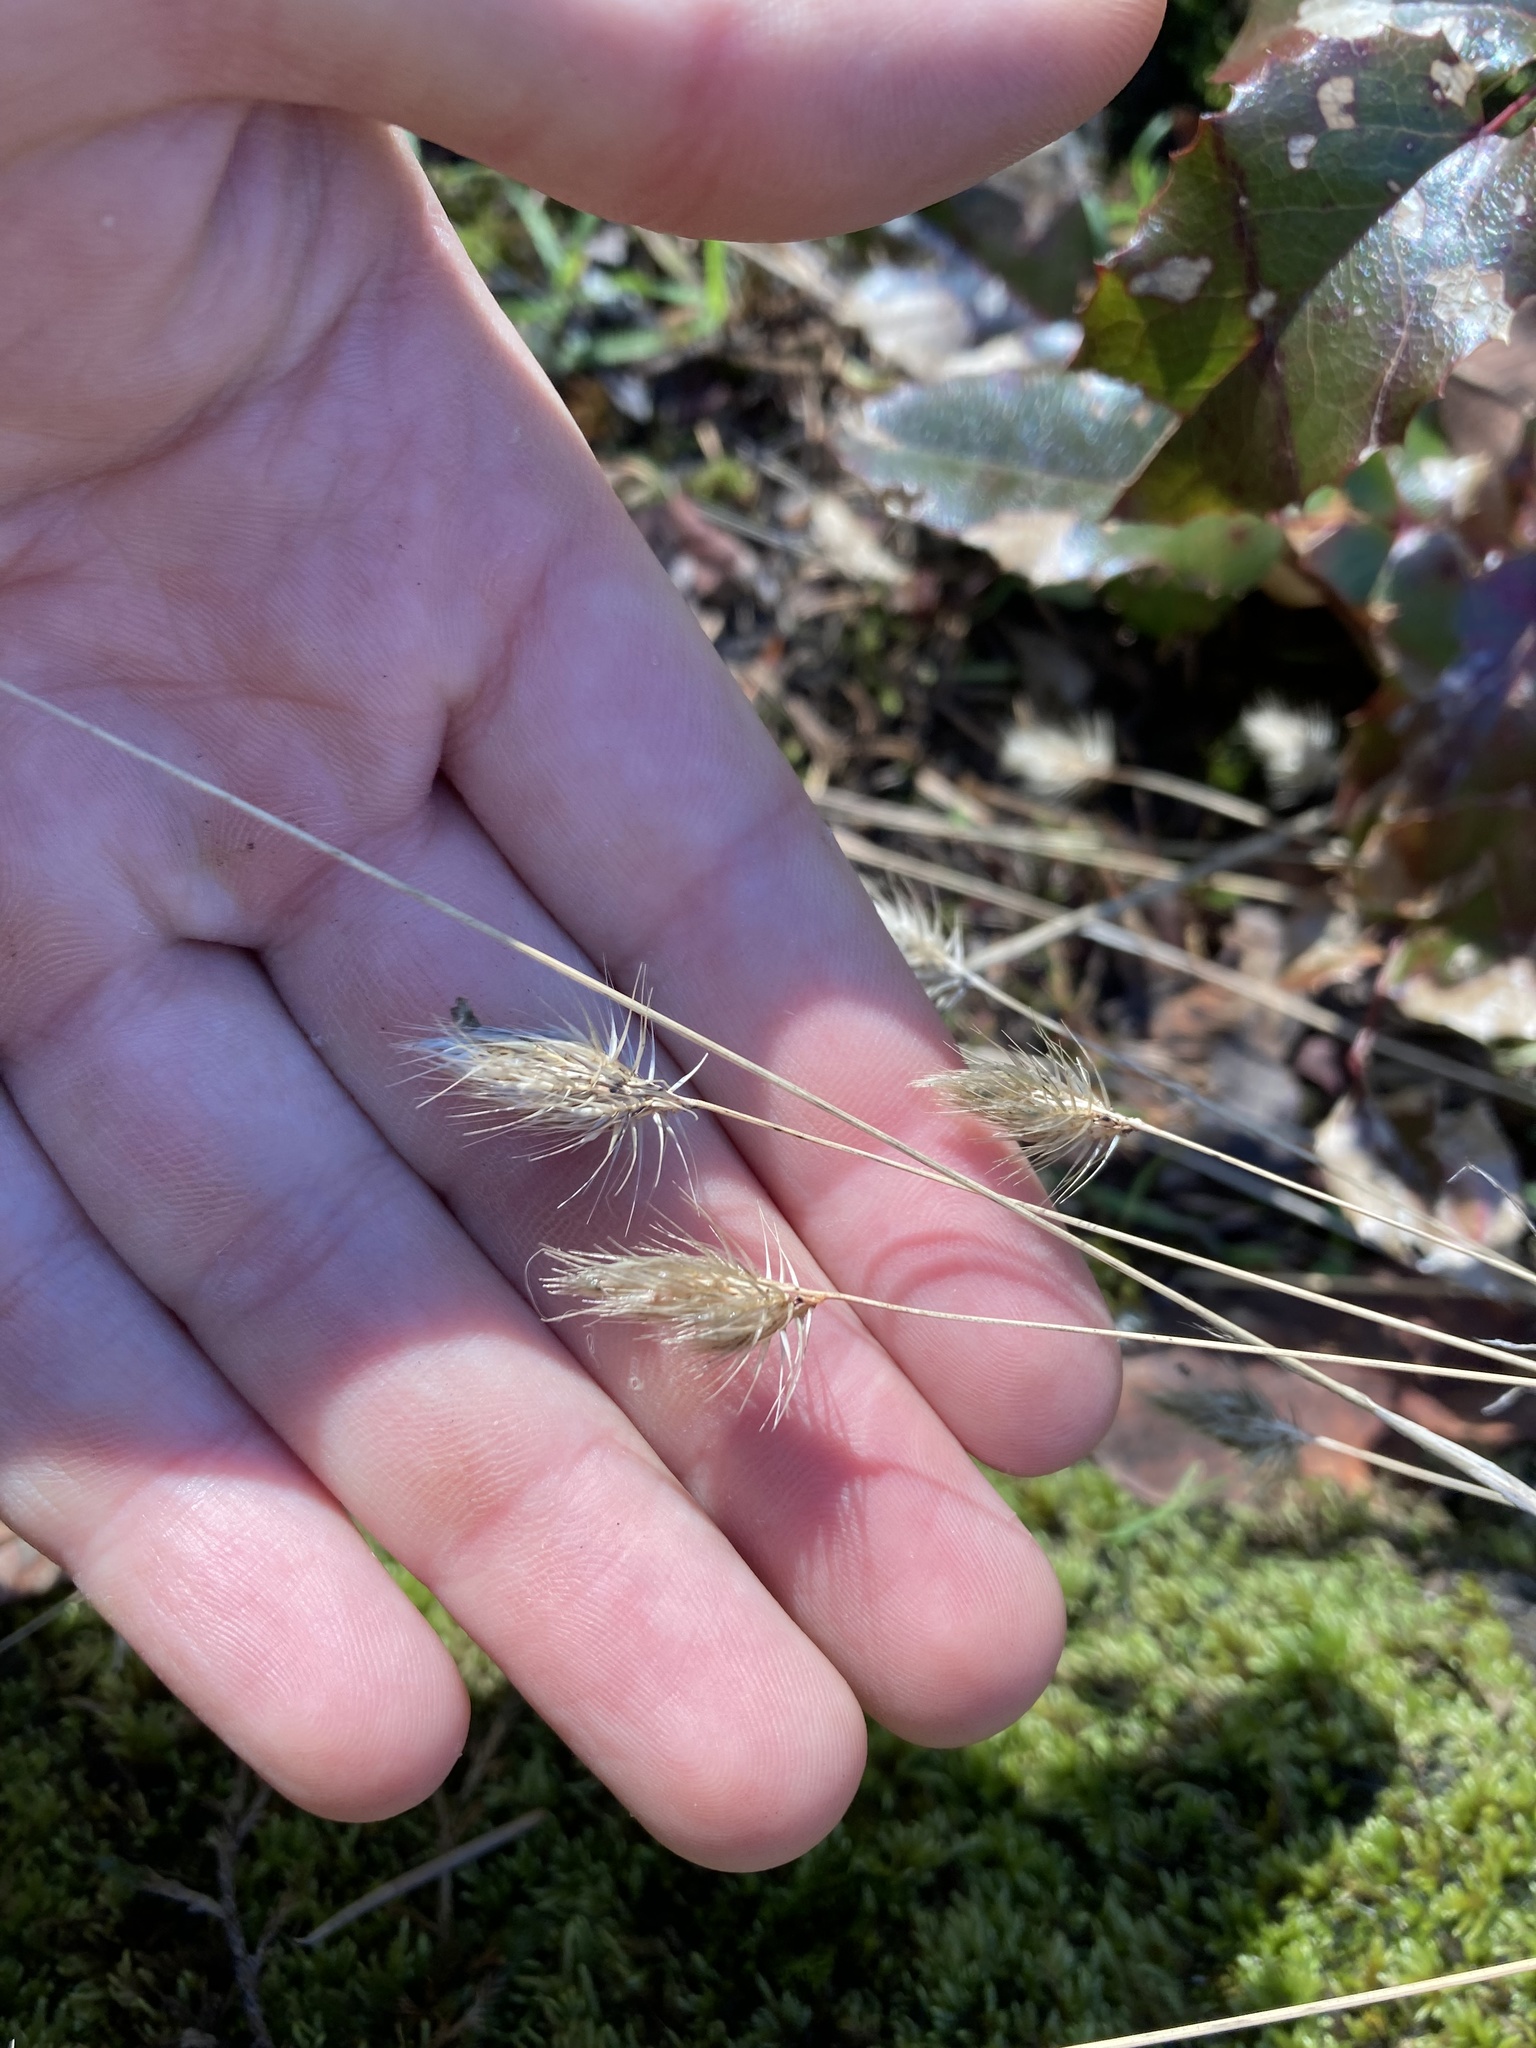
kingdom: Plantae
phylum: Tracheophyta
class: Liliopsida
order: Poales
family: Poaceae
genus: Cynosurus
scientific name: Cynosurus echinatus
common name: Rough dog's-tail
